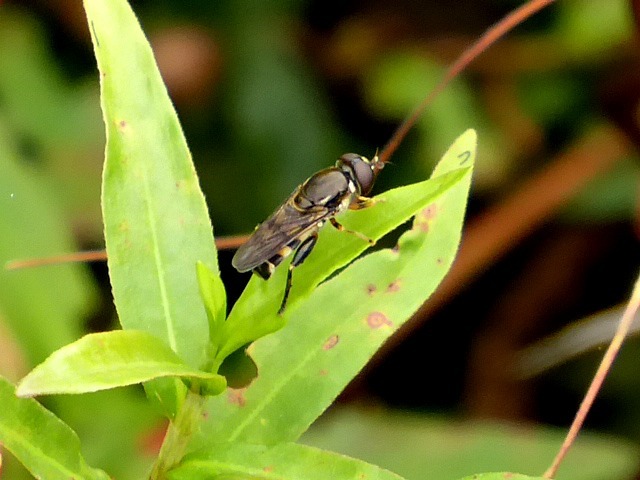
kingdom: Animalia
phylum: Arthropoda
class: Insecta
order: Diptera
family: Syrphidae
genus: Tropidia
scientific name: Tropidia albistylum
